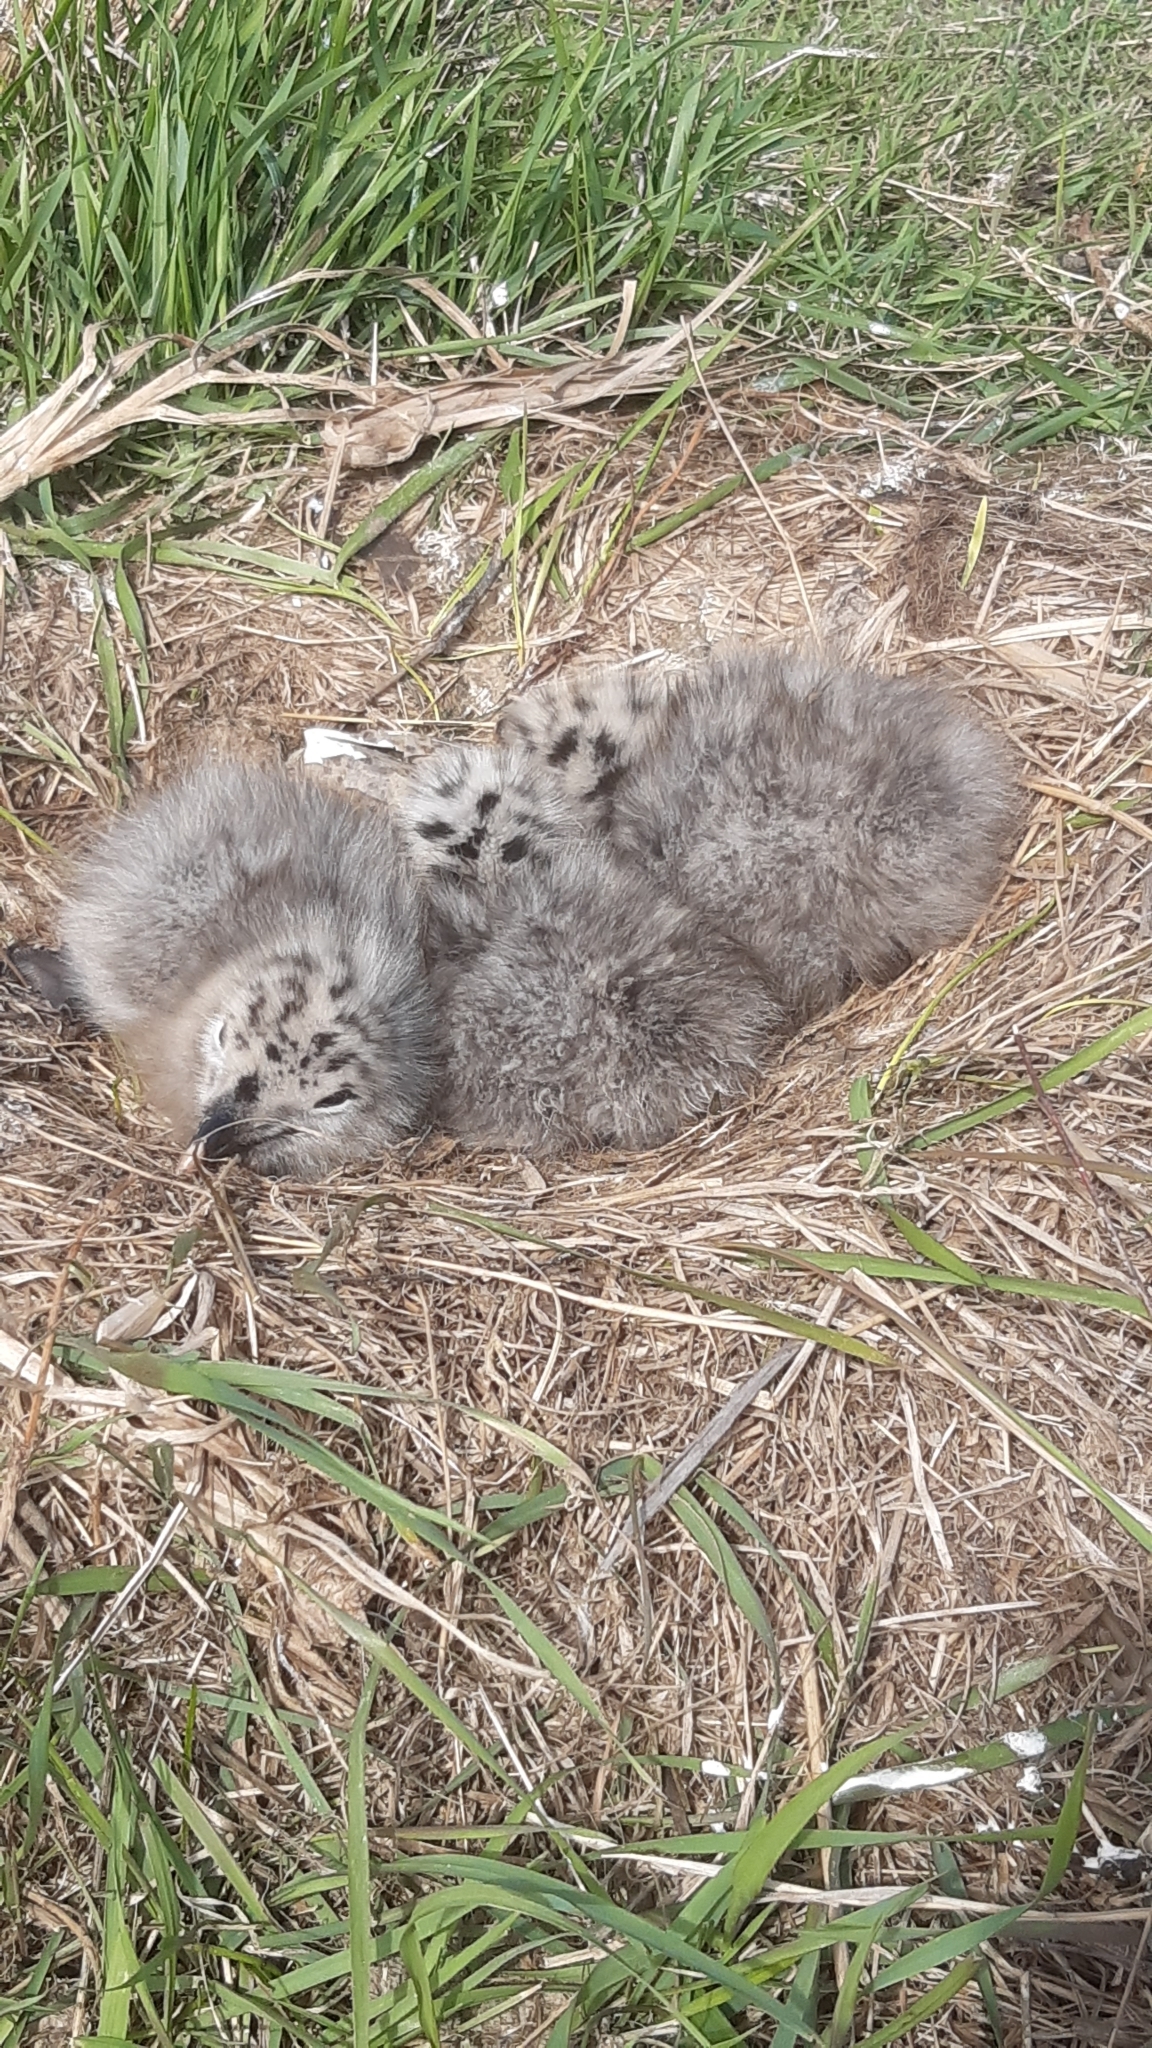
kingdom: Animalia
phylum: Chordata
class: Aves
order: Charadriiformes
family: Laridae
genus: Larus
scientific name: Larus dominicanus
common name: Kelp gull
